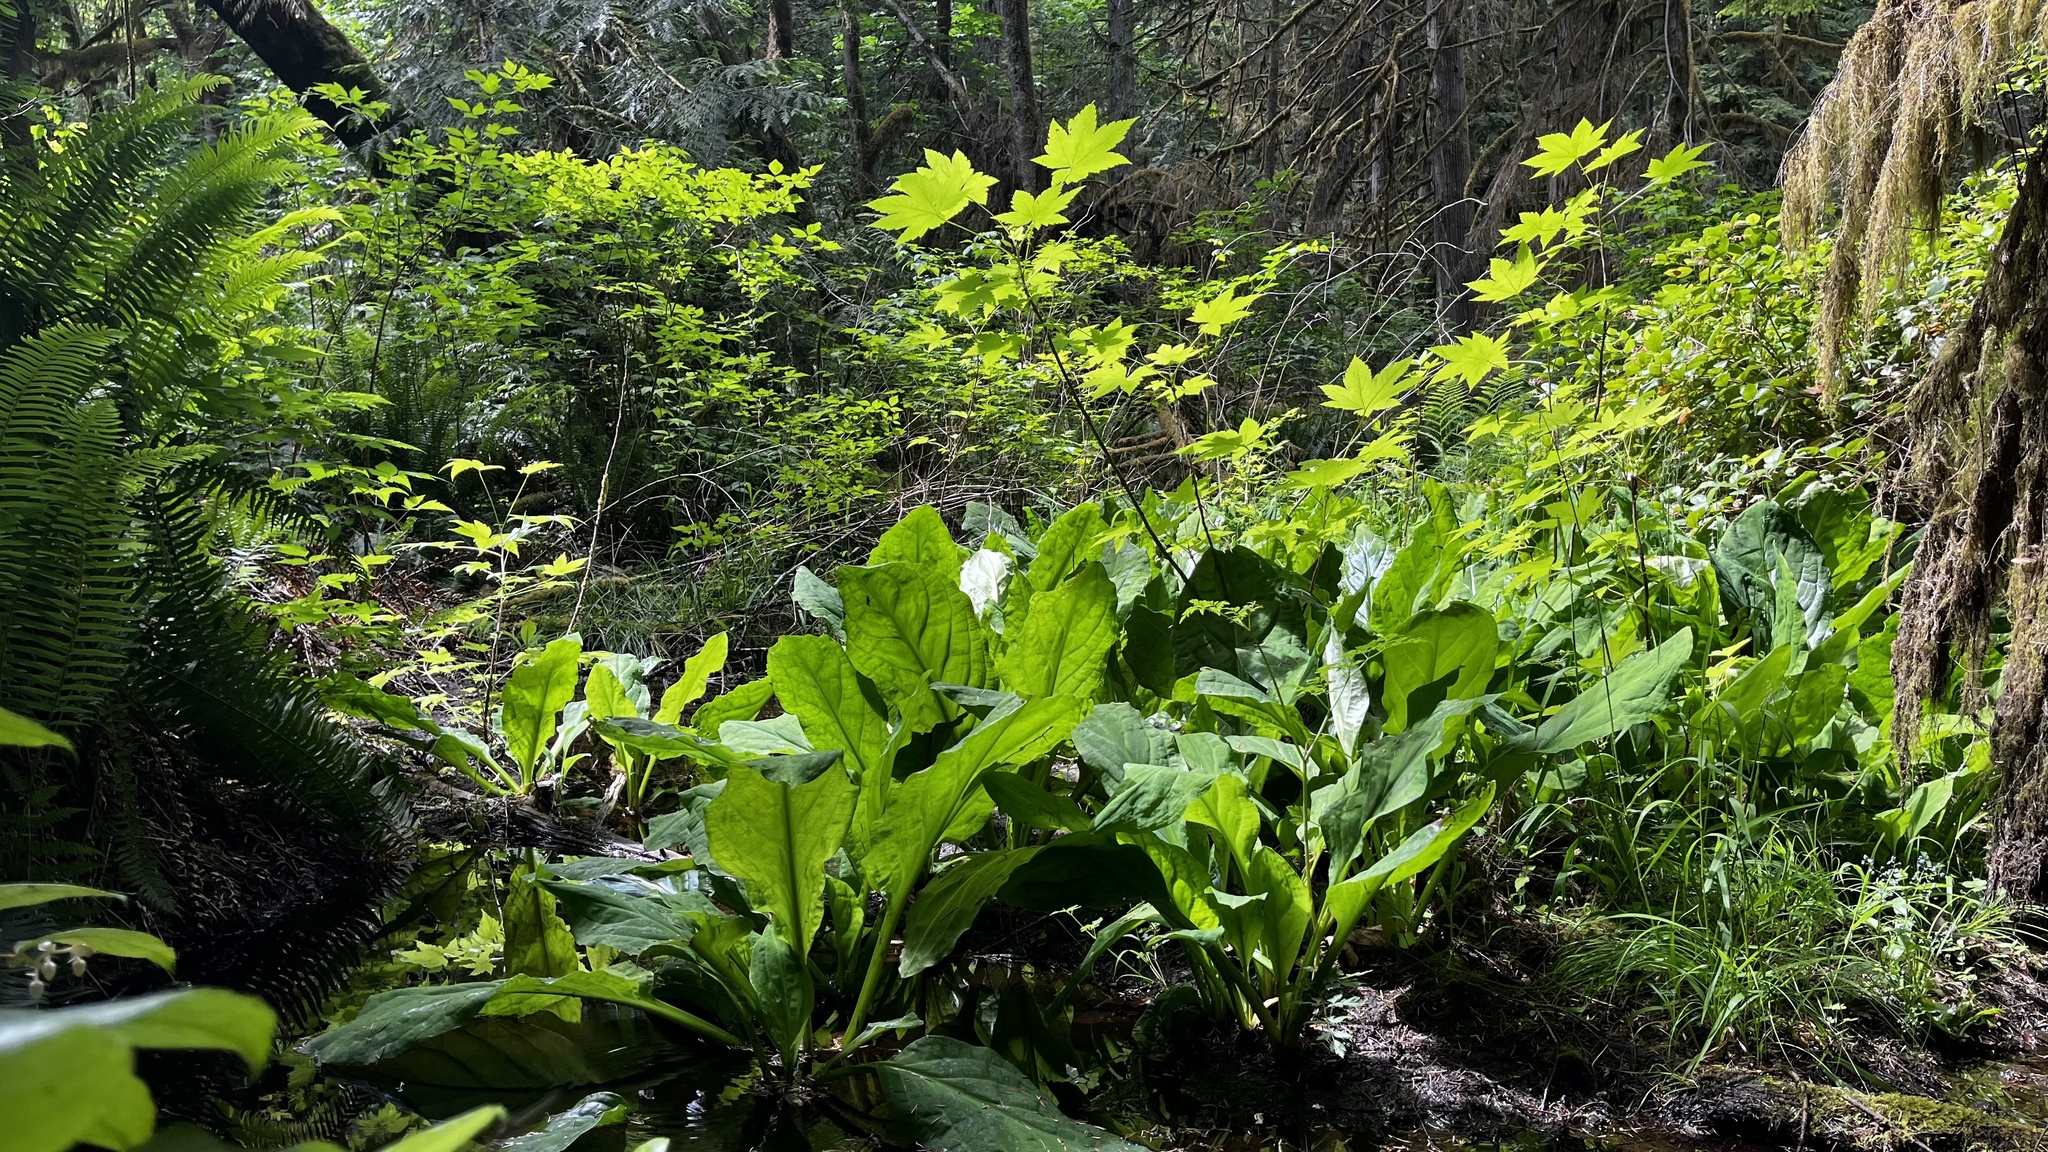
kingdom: Plantae
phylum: Tracheophyta
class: Liliopsida
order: Alismatales
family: Araceae
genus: Lysichiton
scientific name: Lysichiton americanus
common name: American skunk cabbage
